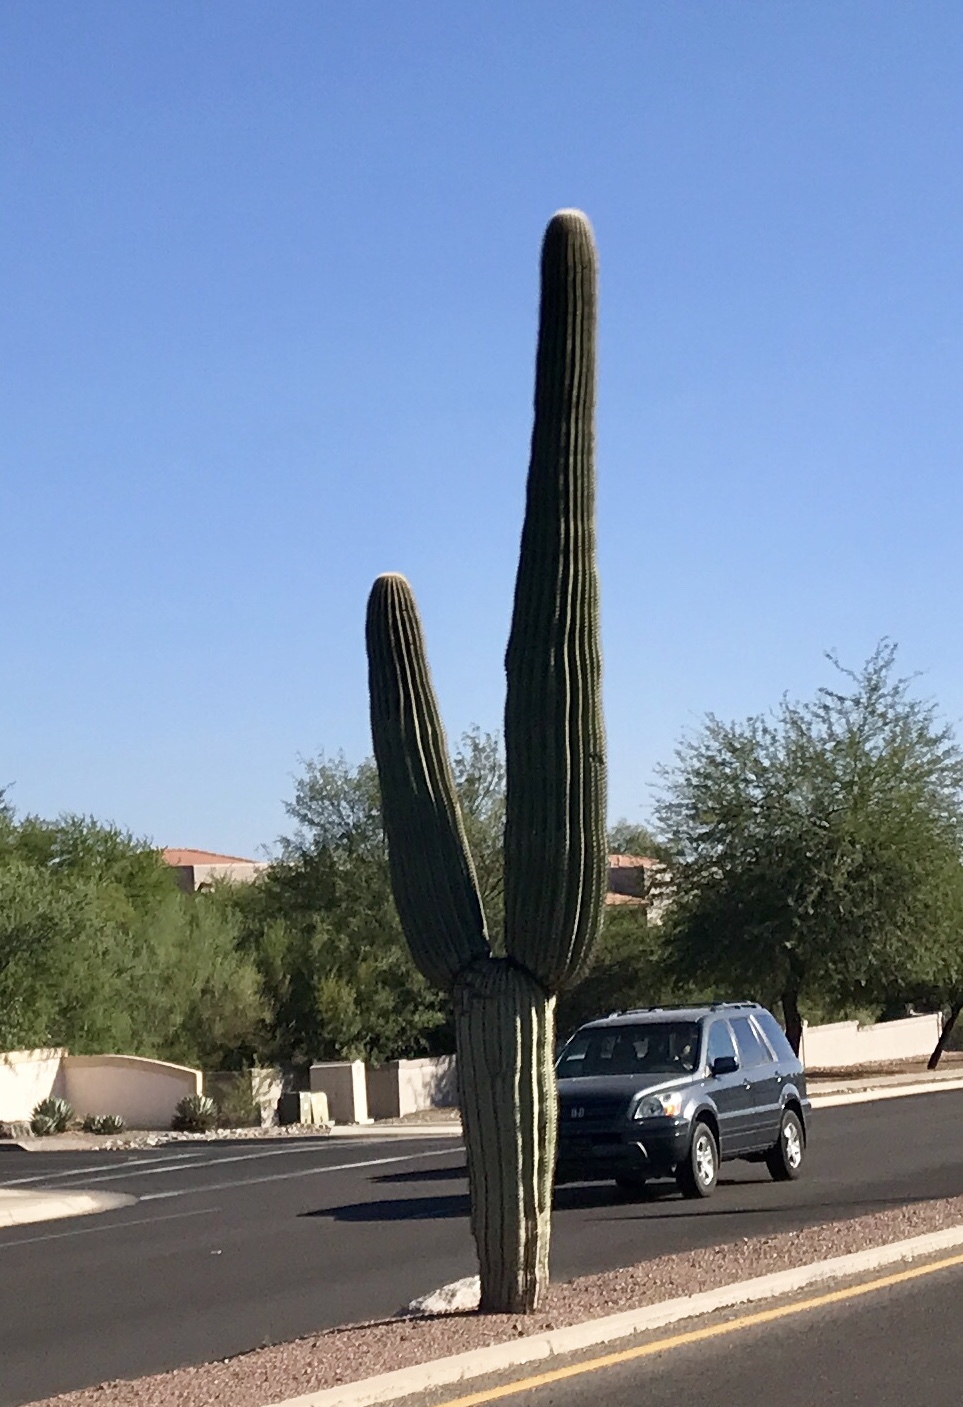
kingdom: Plantae
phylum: Tracheophyta
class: Magnoliopsida
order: Caryophyllales
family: Cactaceae
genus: Carnegiea
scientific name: Carnegiea gigantea
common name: Saguaro
